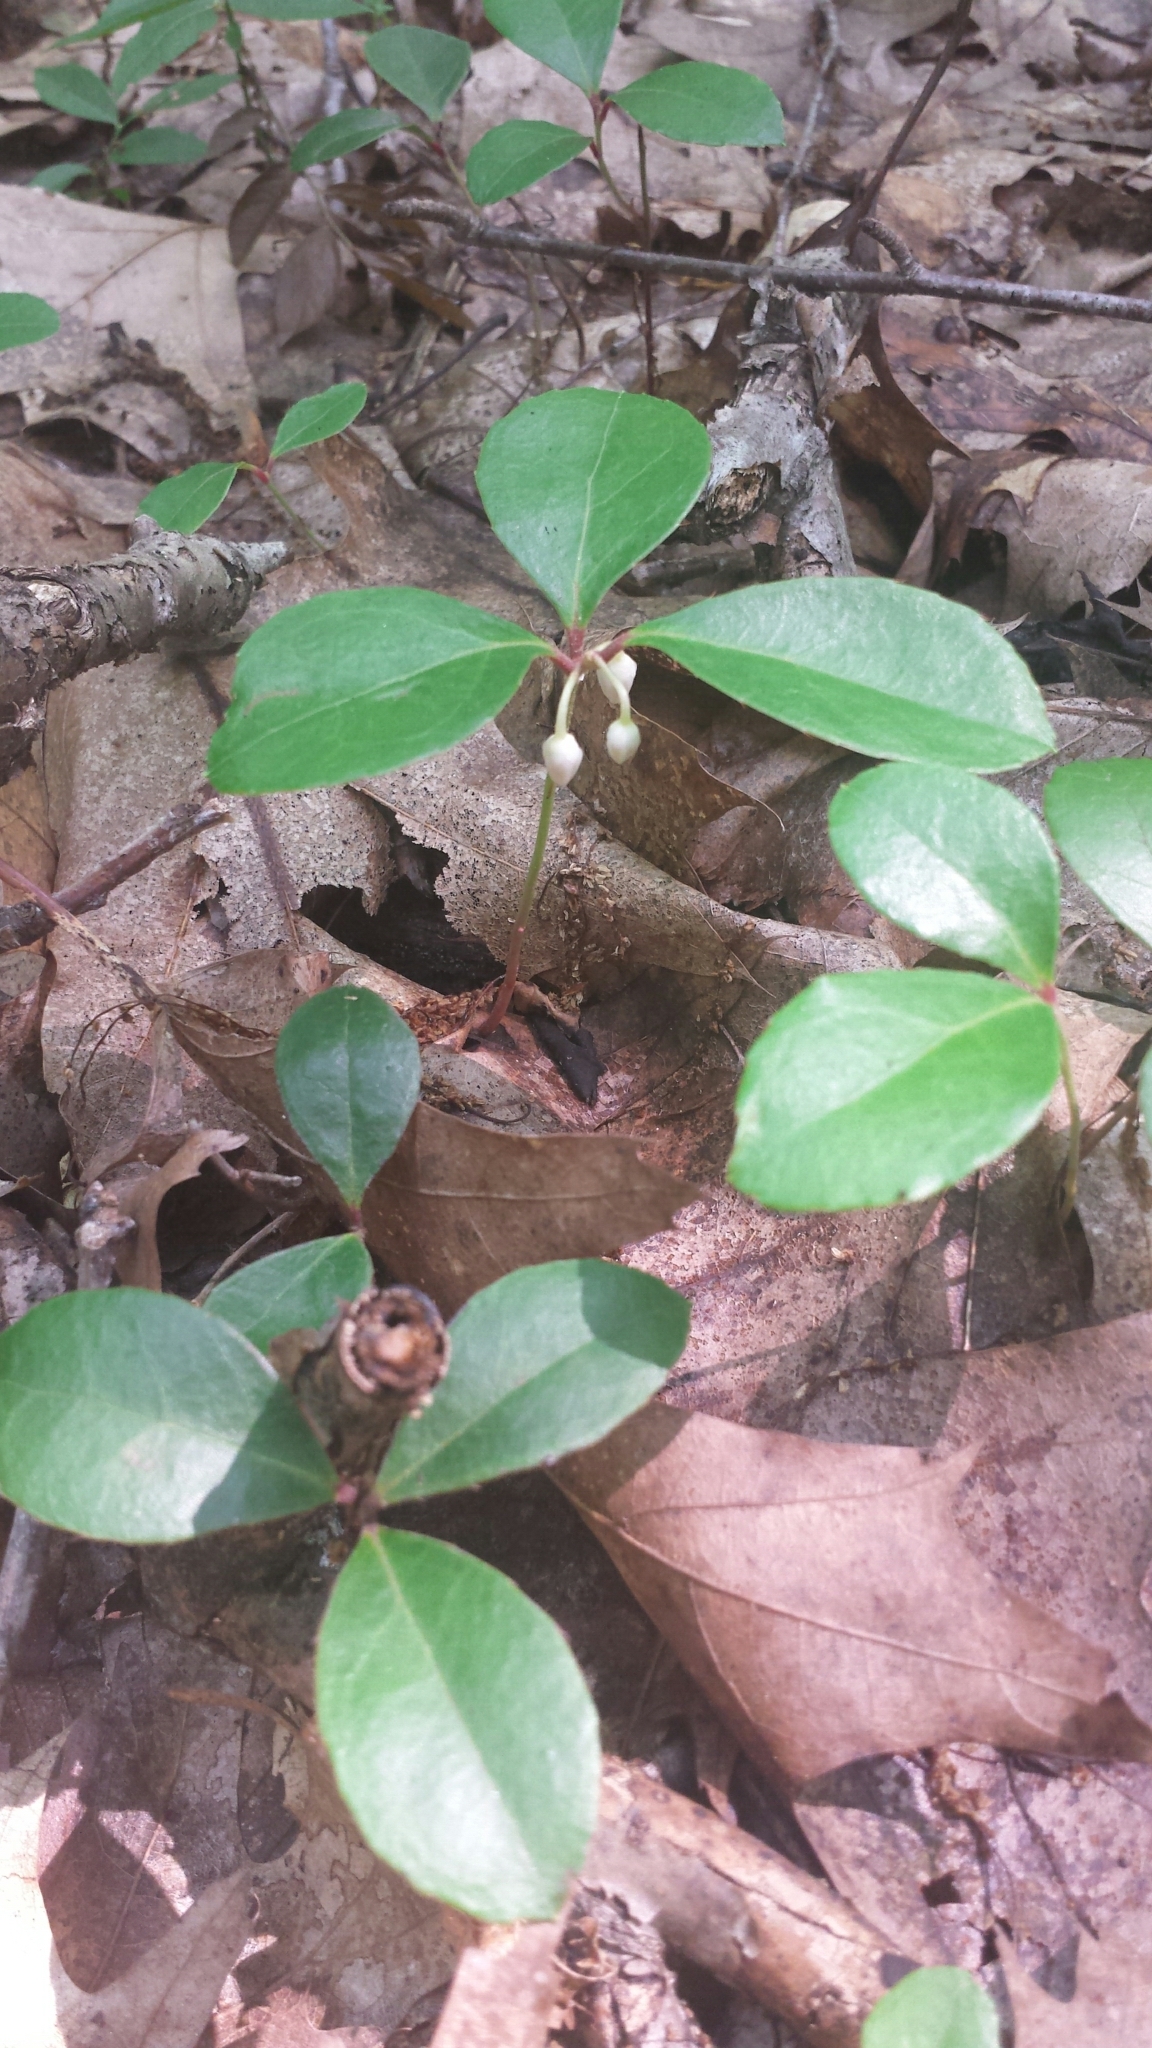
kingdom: Plantae
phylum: Tracheophyta
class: Magnoliopsida
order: Ericales
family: Ericaceae
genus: Gaultheria
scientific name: Gaultheria procumbens
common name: Checkerberry
